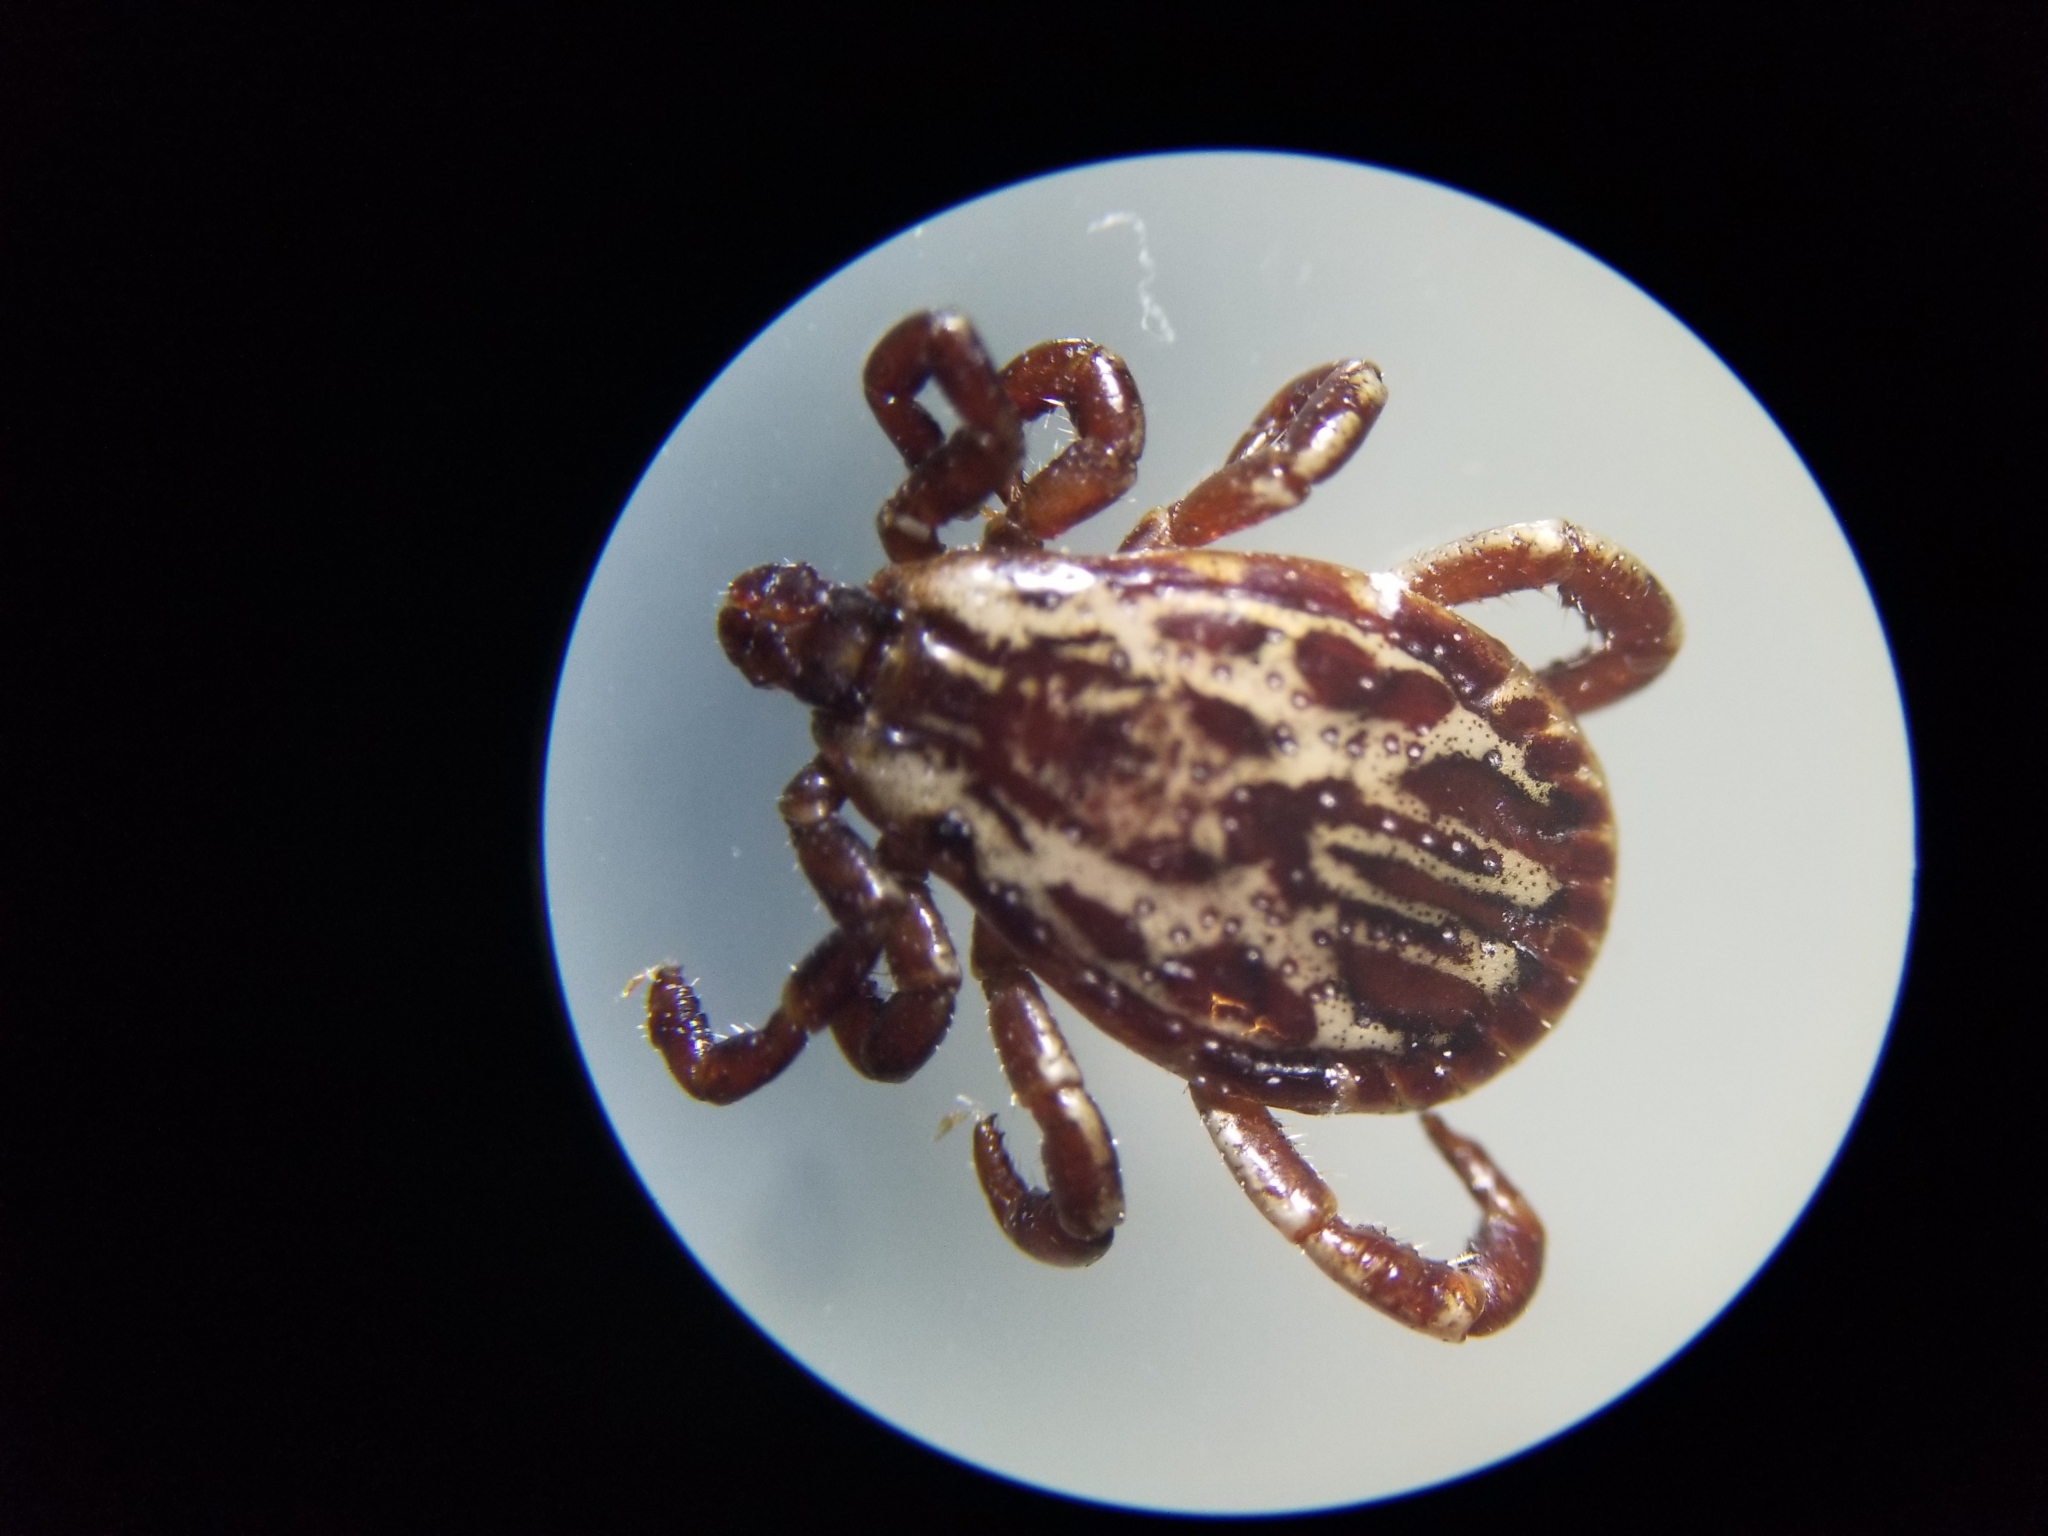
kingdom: Animalia
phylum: Arthropoda
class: Arachnida
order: Ixodida
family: Ixodidae
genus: Dermacentor
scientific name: Dermacentor variabilis
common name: American dog tick
